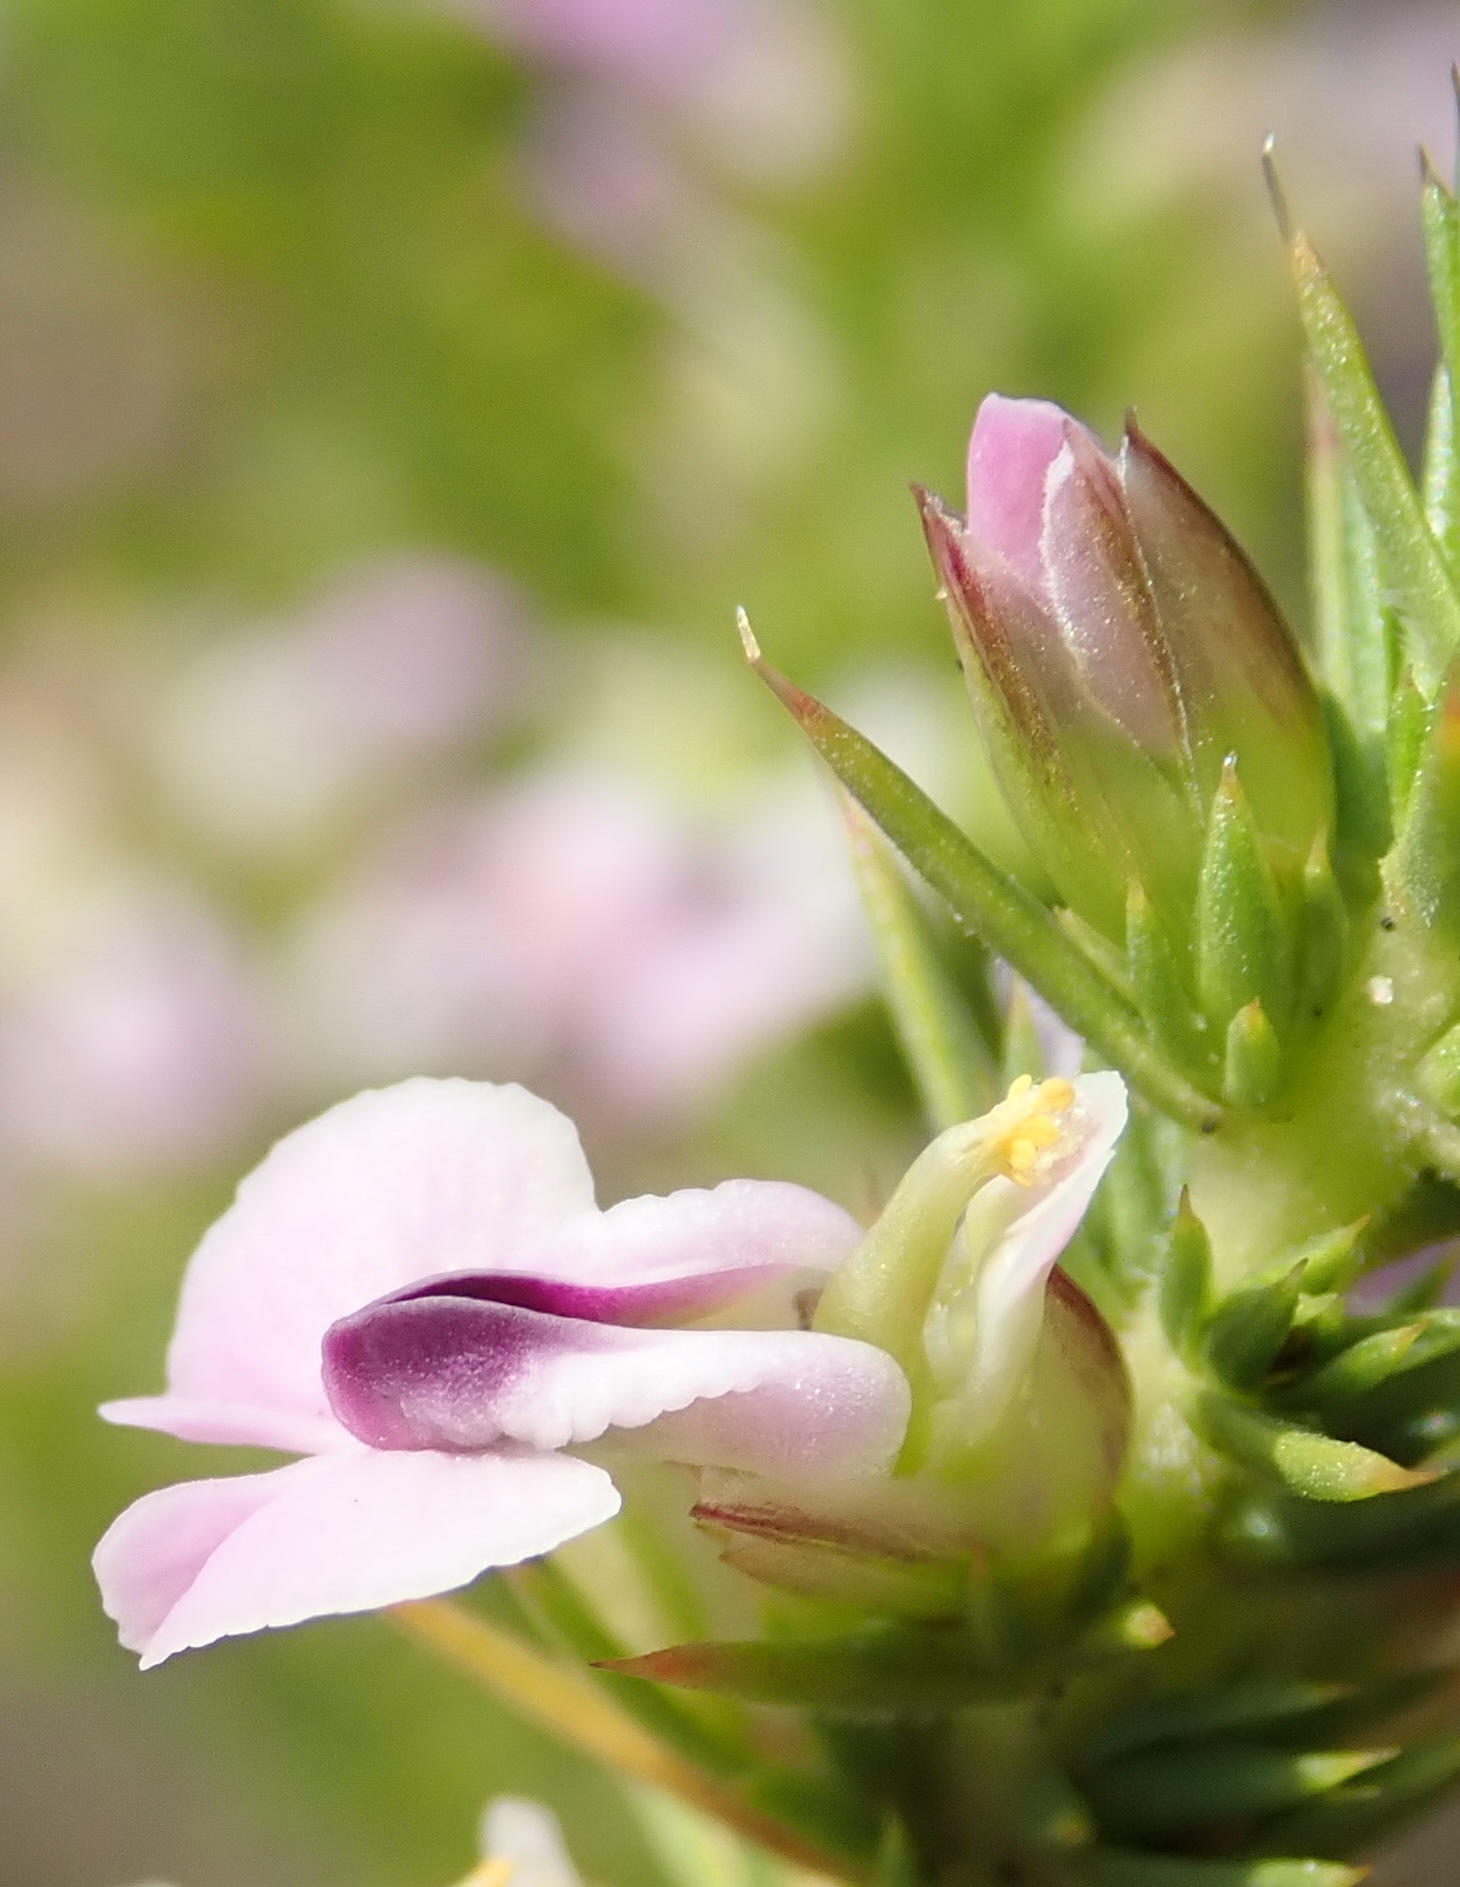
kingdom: Plantae
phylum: Tracheophyta
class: Magnoliopsida
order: Fabales
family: Polygalaceae
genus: Muraltia
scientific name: Muraltia ericifolia
